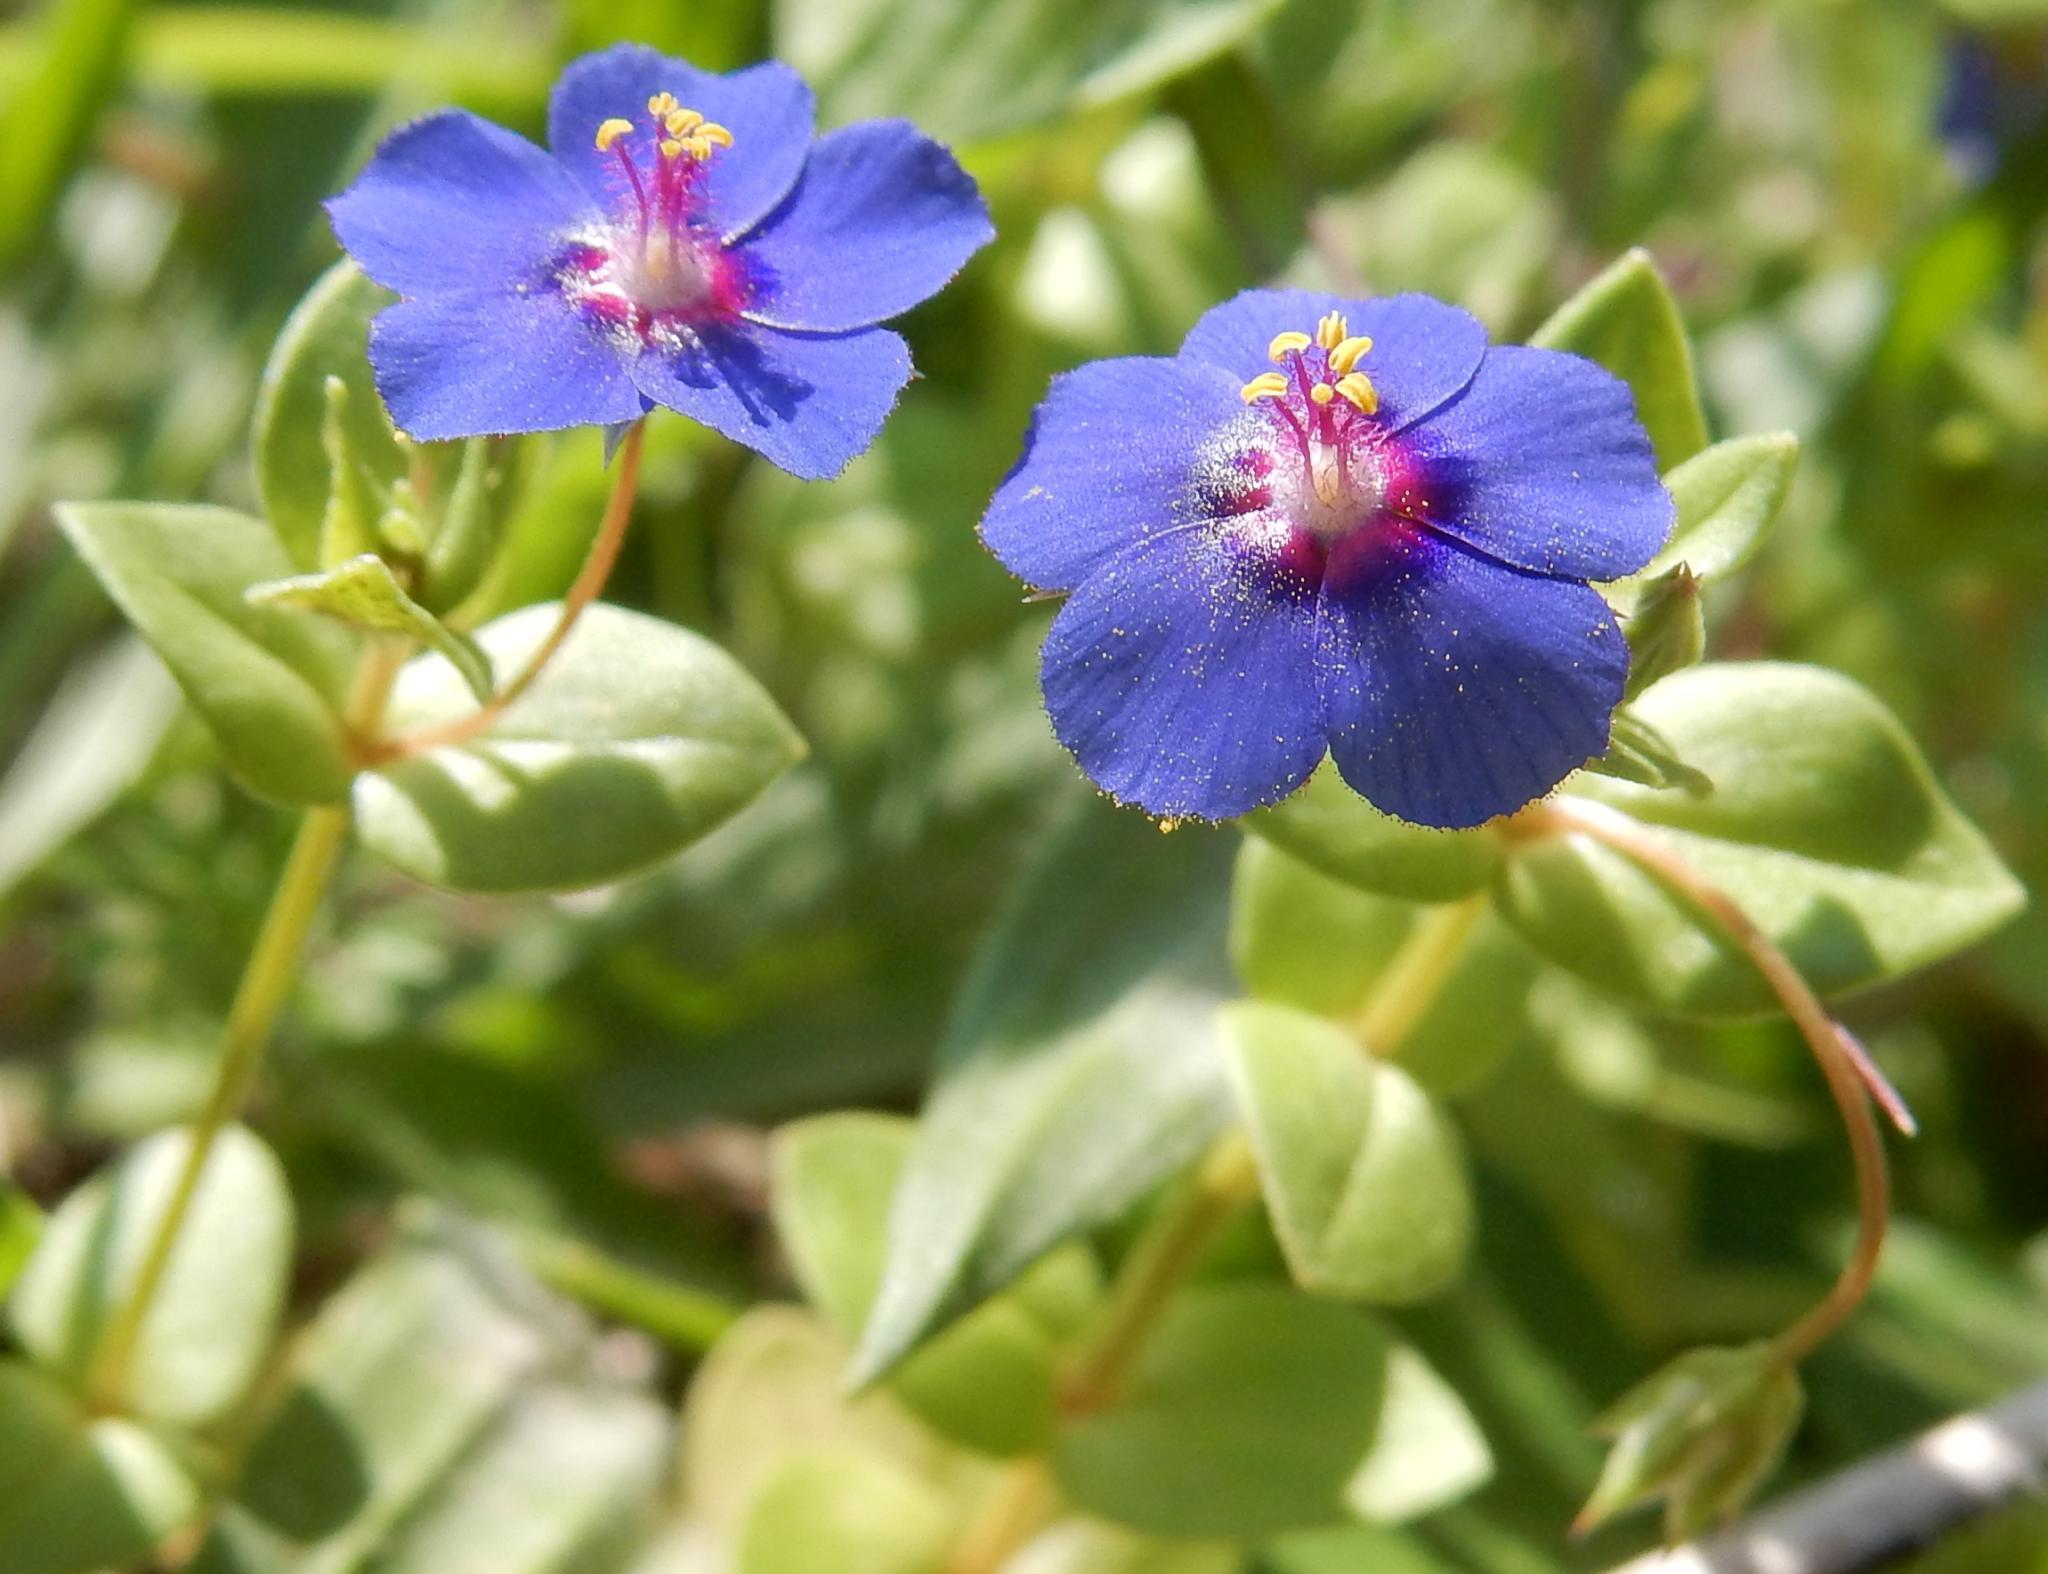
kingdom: Plantae
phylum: Tracheophyta
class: Magnoliopsida
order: Ericales
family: Primulaceae
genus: Lysimachia
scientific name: Lysimachia loeflingii
